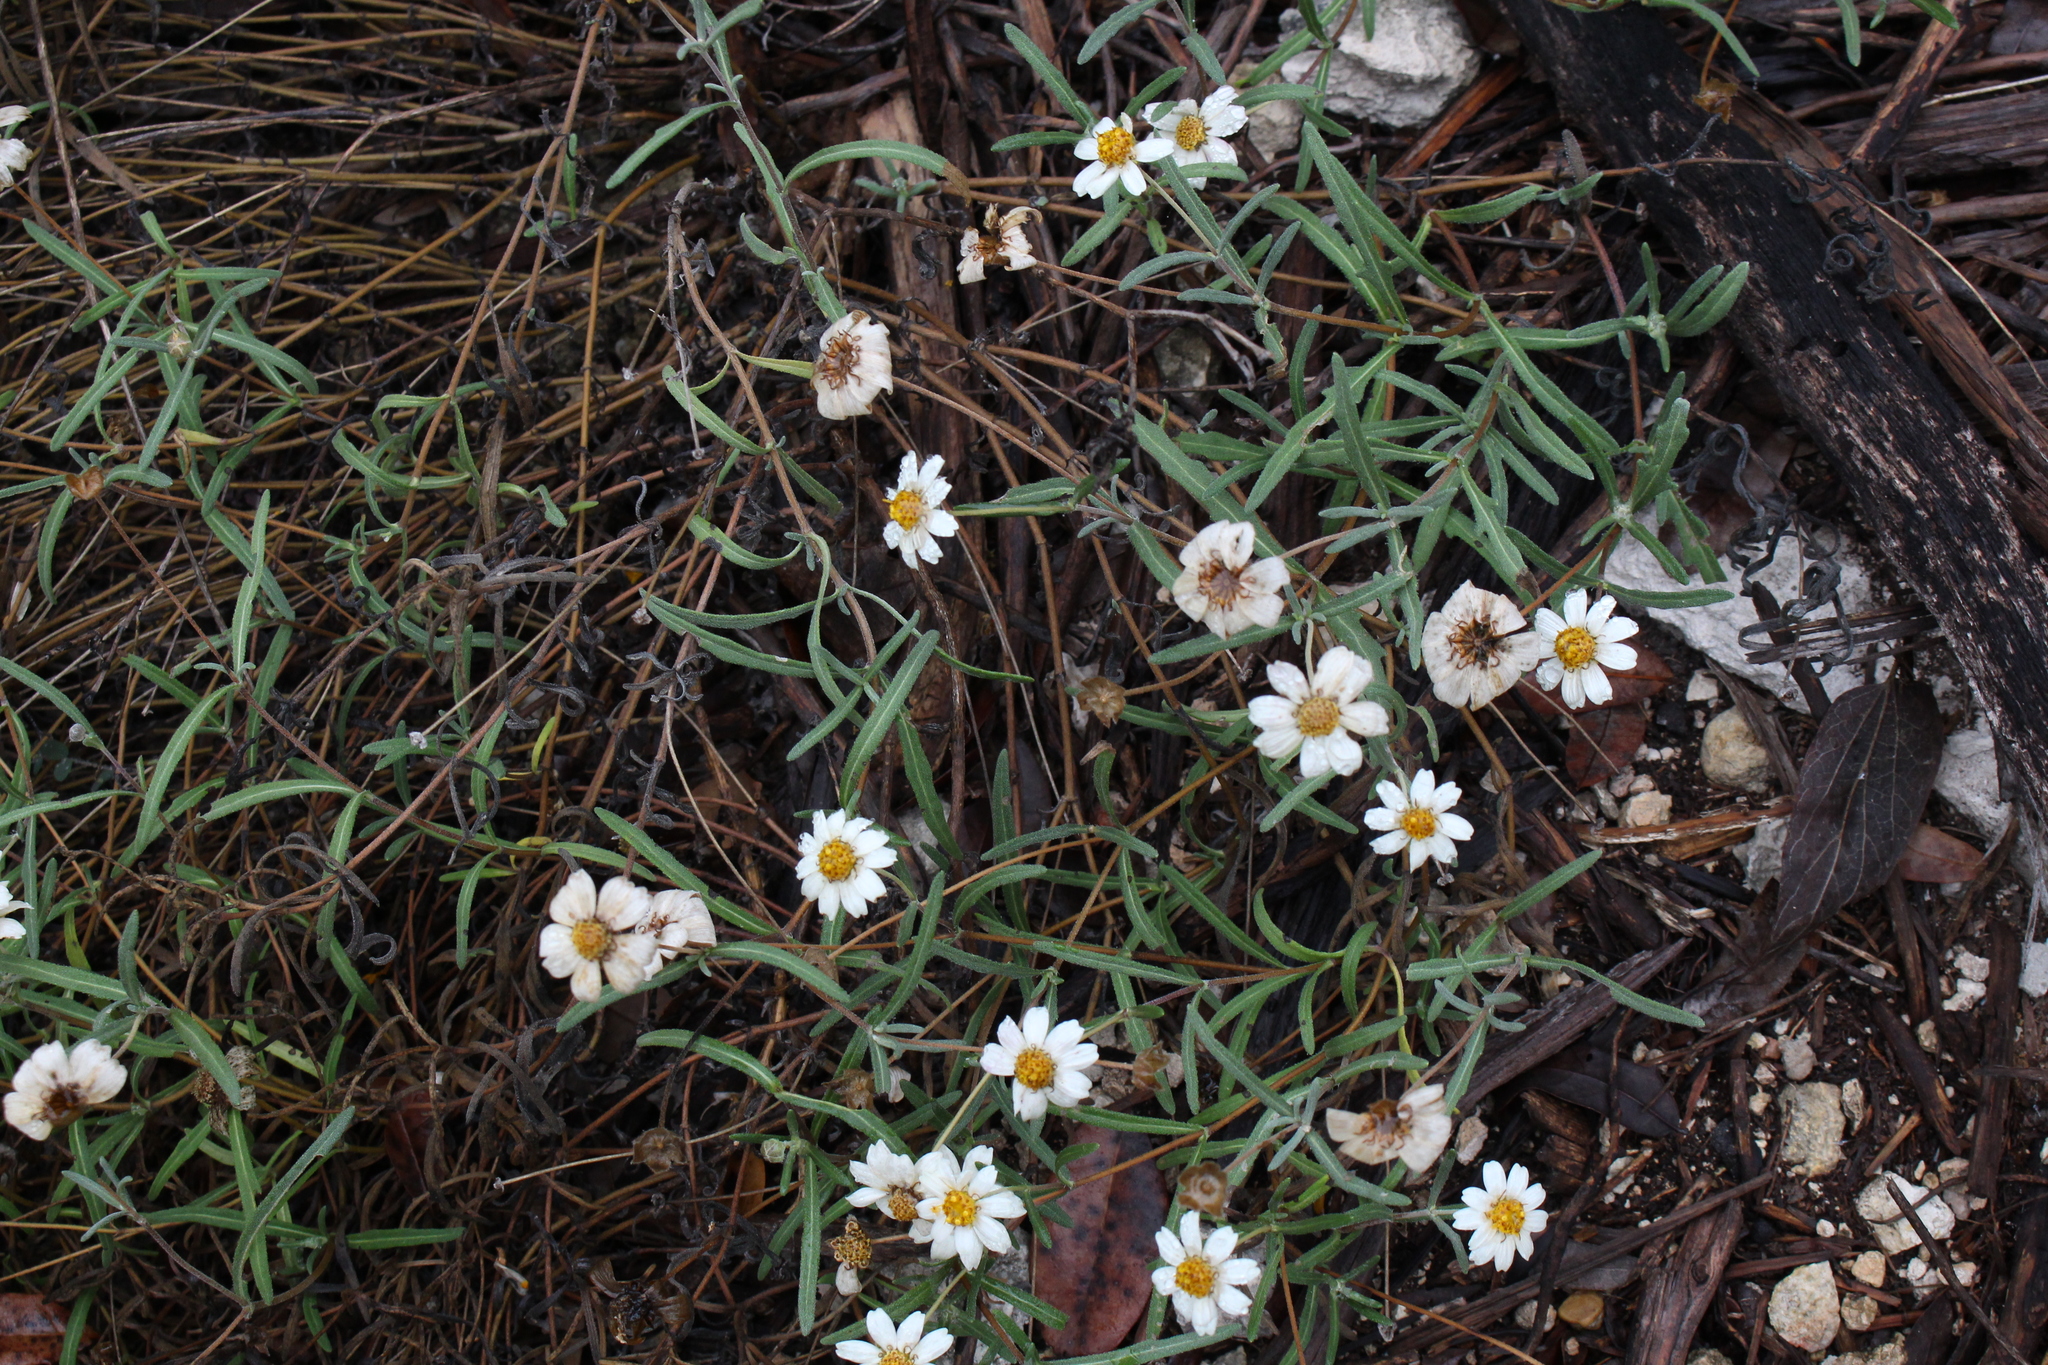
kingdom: Plantae
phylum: Tracheophyta
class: Magnoliopsida
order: Asterales
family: Asteraceae
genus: Melampodium
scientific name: Melampodium leucanthum
